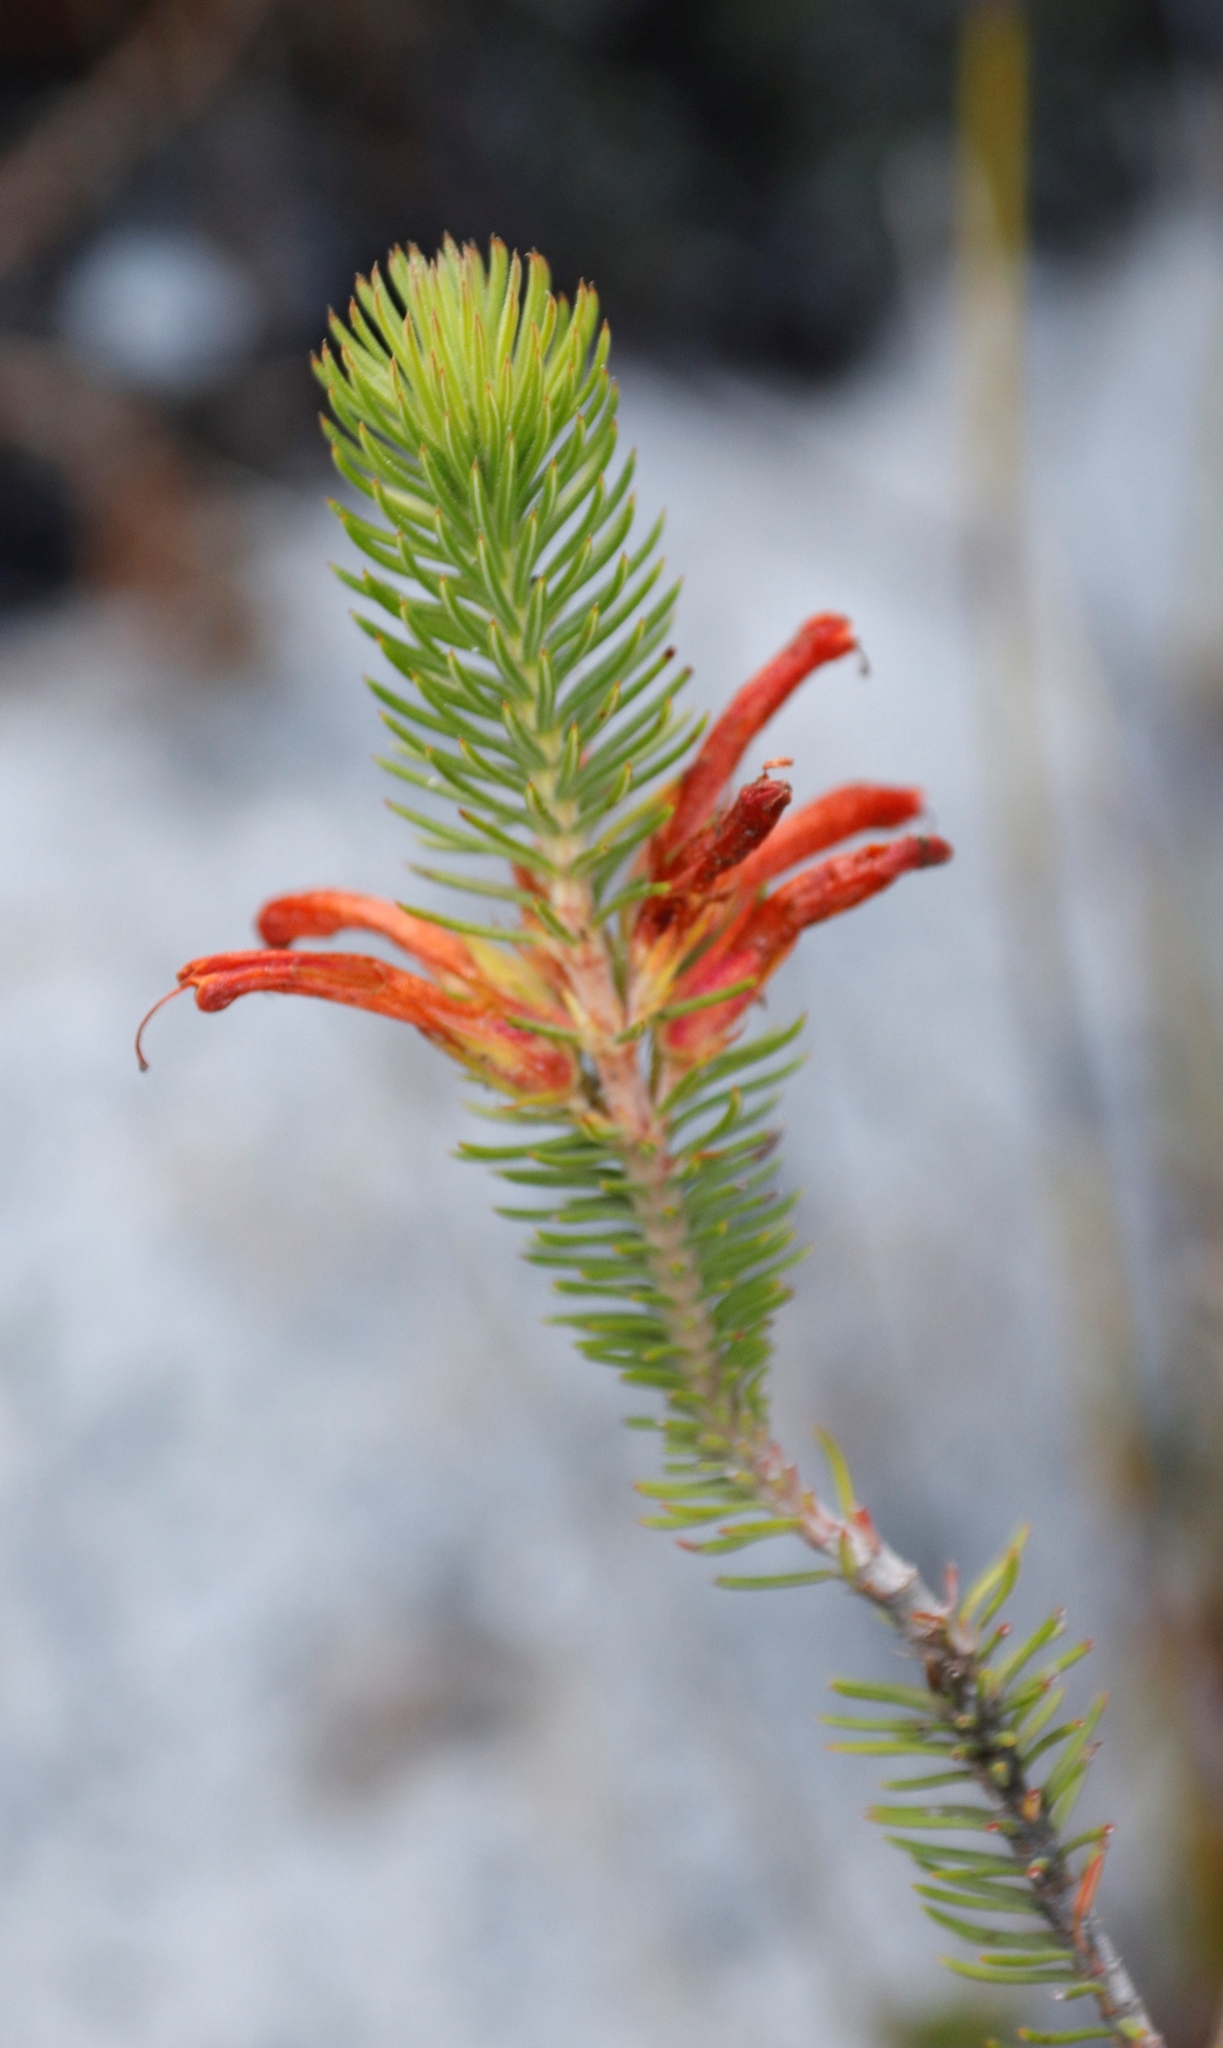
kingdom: Plantae
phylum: Tracheophyta
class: Magnoliopsida
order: Ericales
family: Ericaceae
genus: Erica
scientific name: Erica abietina
